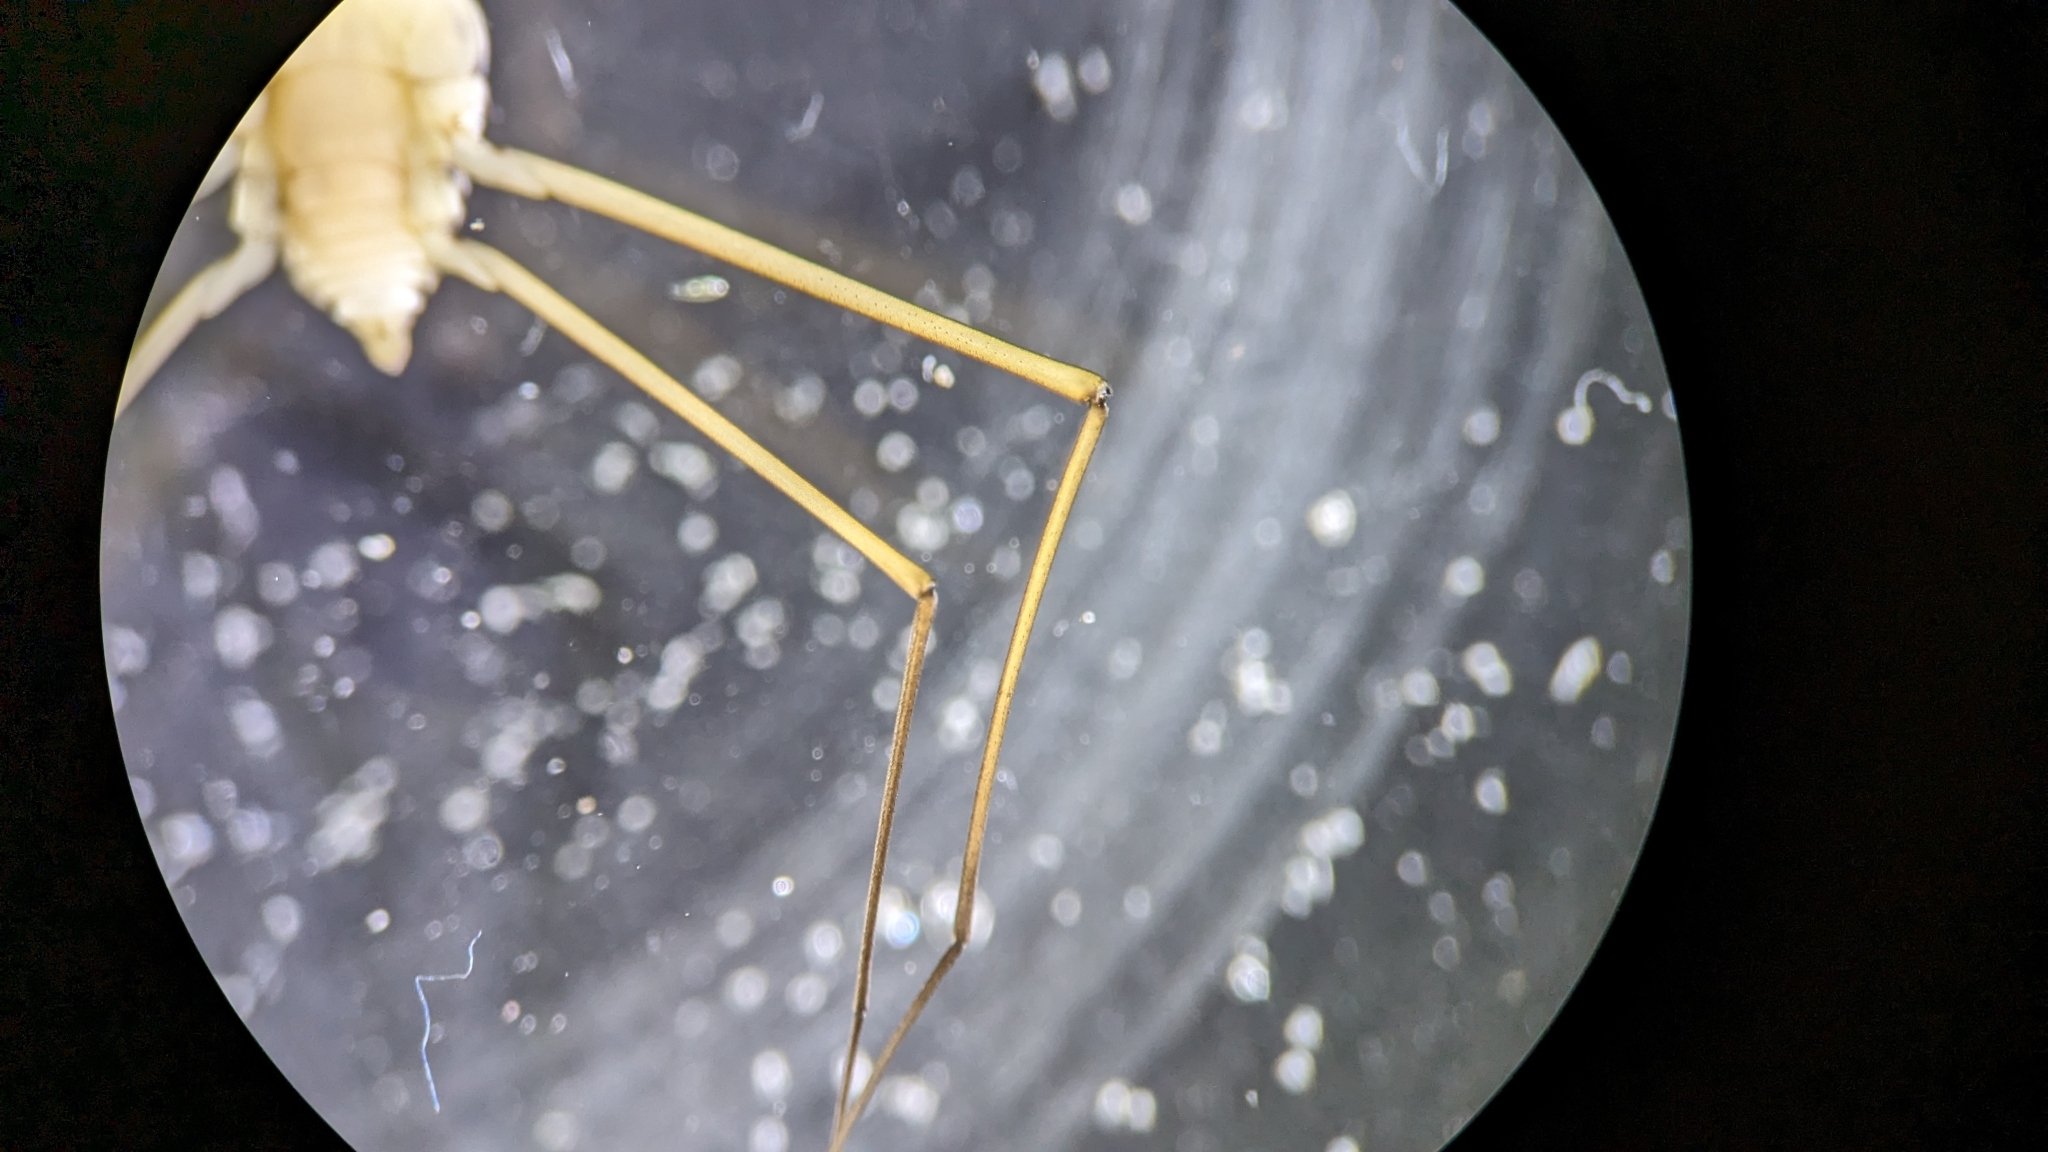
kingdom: Animalia
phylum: Arthropoda
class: Insecta
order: Hemiptera
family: Gerridae
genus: Aquarius
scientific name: Aquarius remigis
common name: Common water strider
